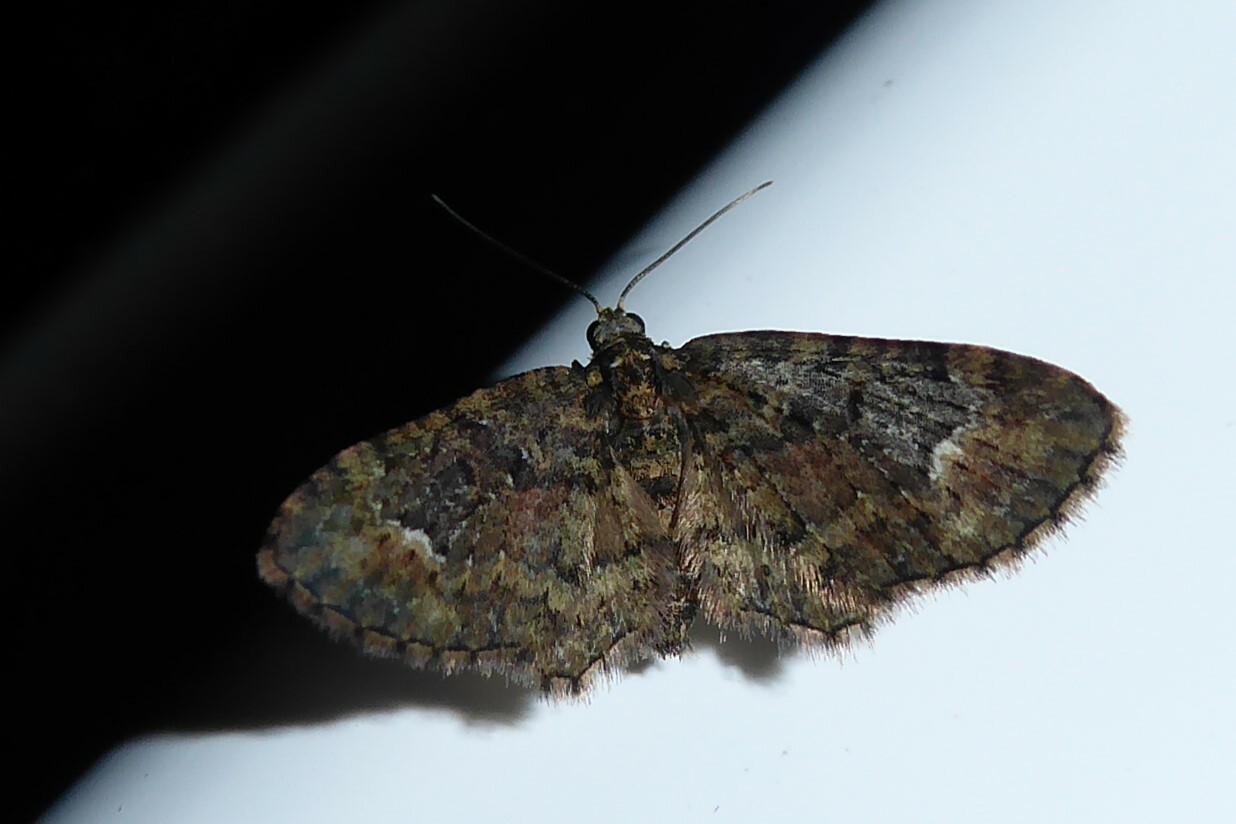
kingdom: Animalia
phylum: Arthropoda
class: Insecta
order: Lepidoptera
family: Geometridae
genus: Pasiphilodes
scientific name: Pasiphilodes testulata
